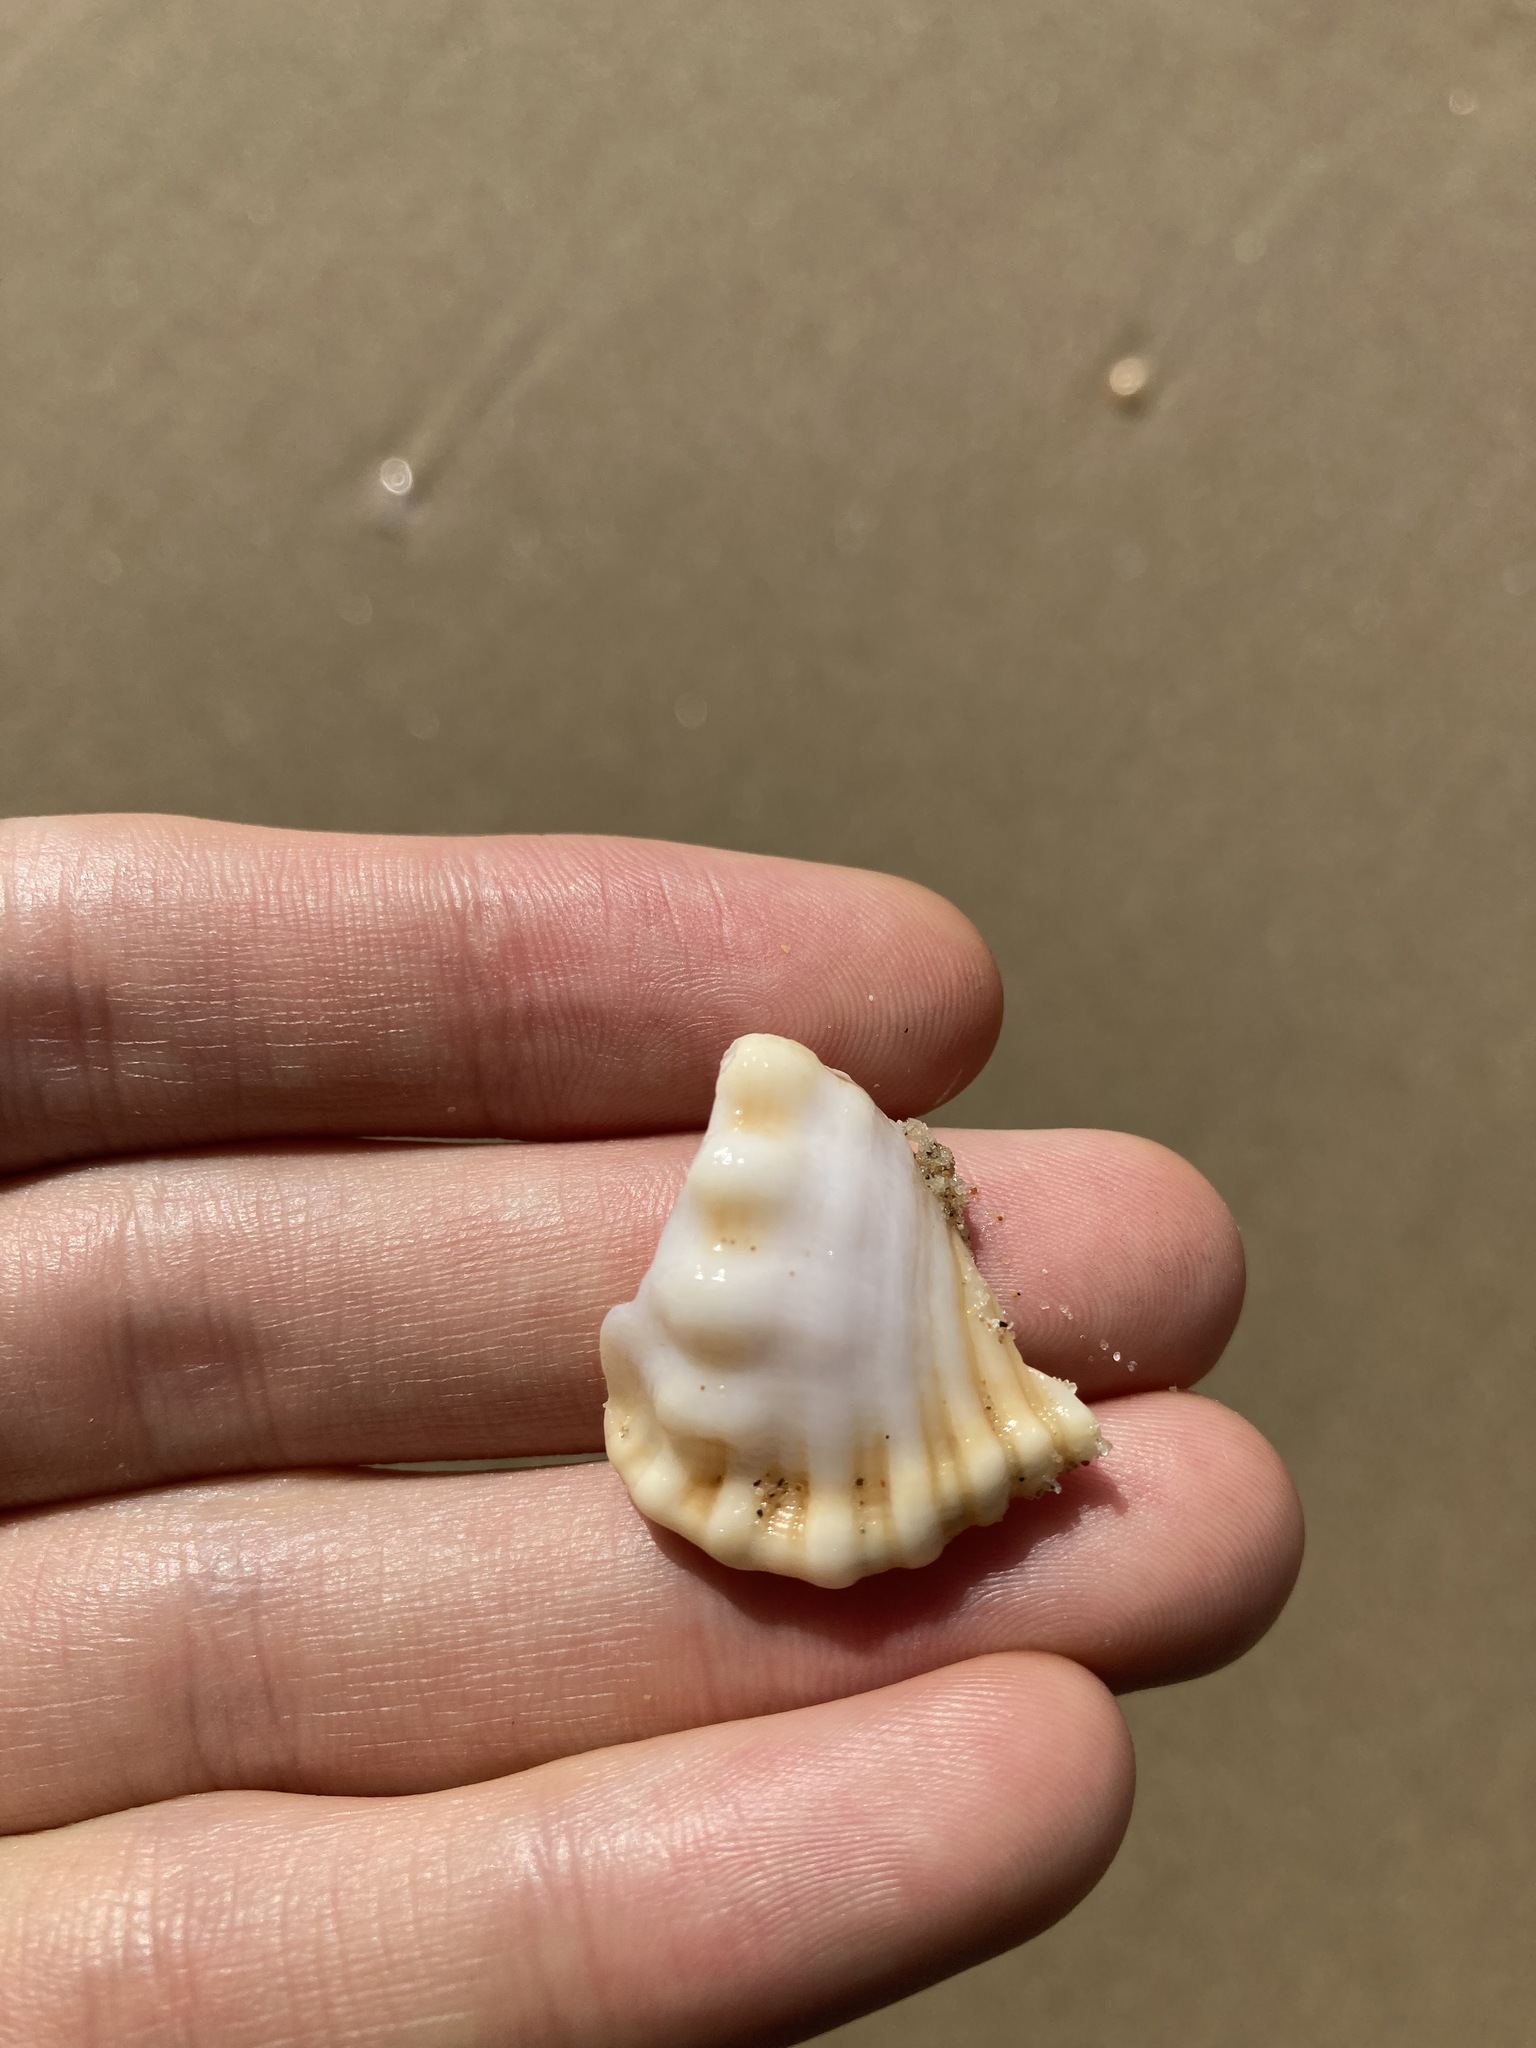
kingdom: Animalia
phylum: Mollusca
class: Gastropoda
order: Littorinimorpha
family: Cymatiidae
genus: Cabestana
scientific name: Cabestana spengleri
